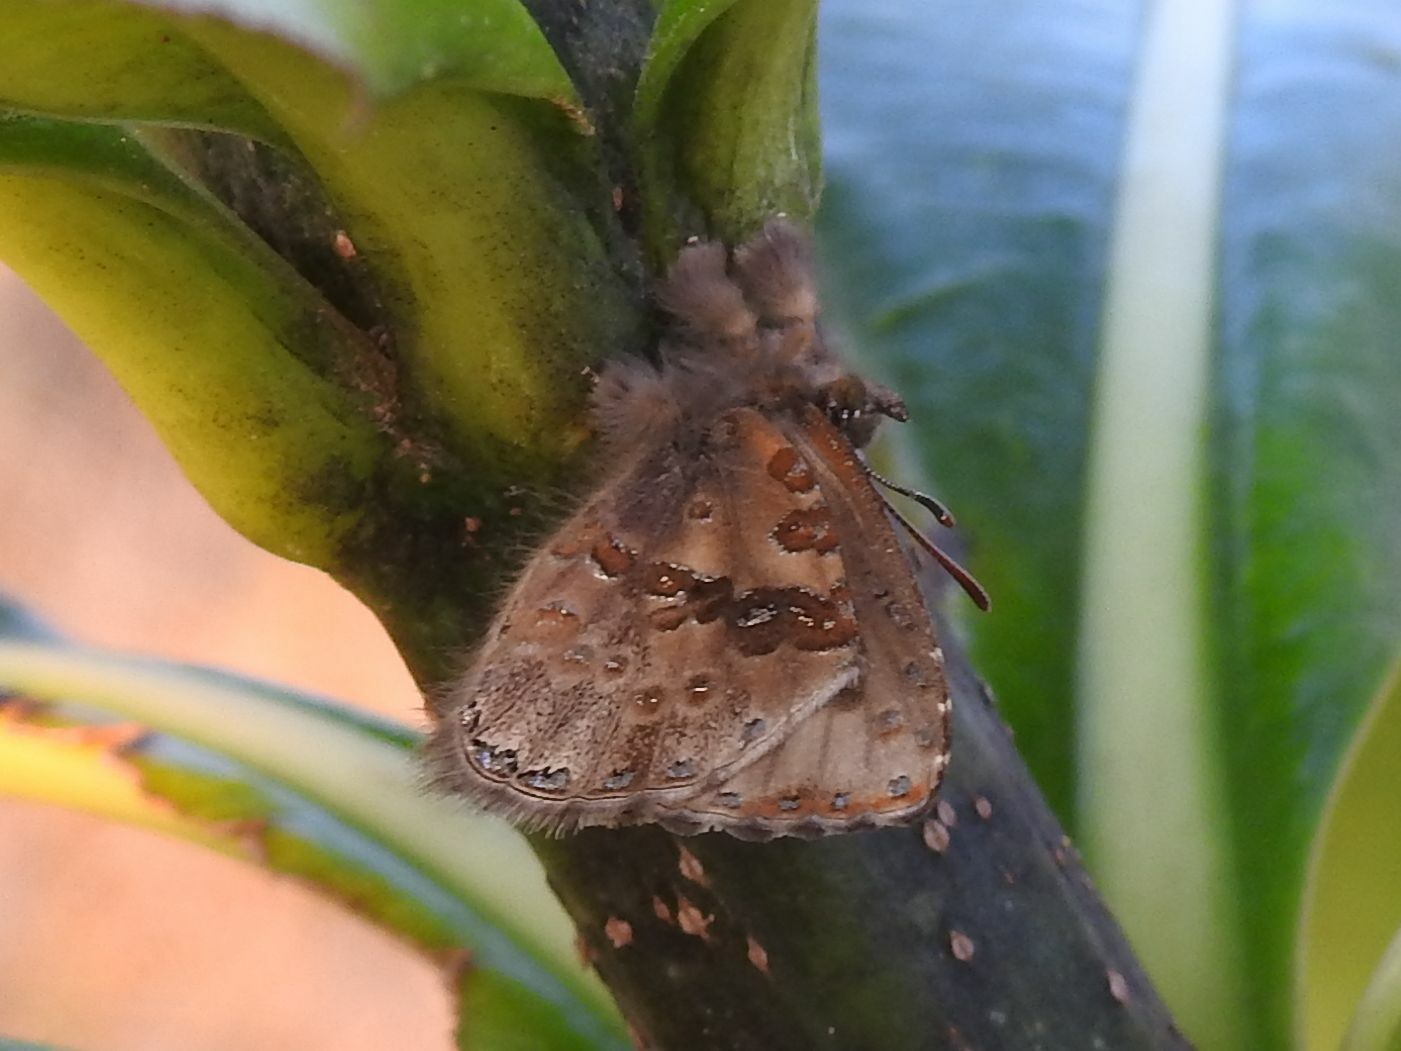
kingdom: Animalia
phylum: Arthropoda
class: Insecta
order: Lepidoptera
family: Lycaenidae
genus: Lachnocnema
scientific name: Lachnocnema
